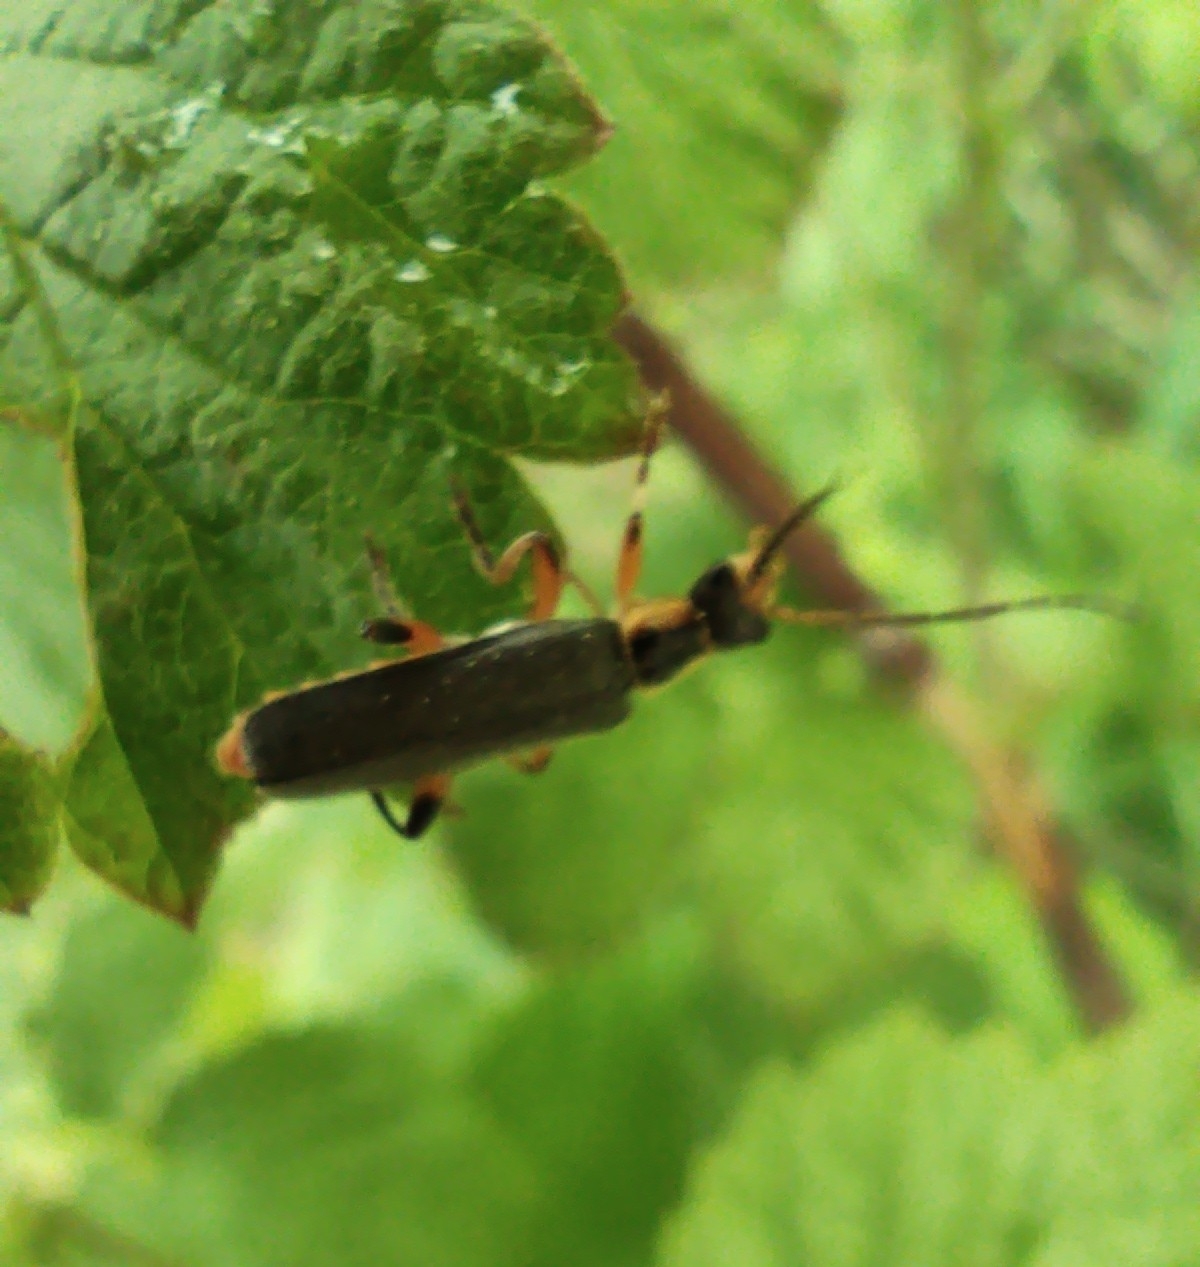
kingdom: Animalia
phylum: Arthropoda
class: Insecta
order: Coleoptera
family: Cantharidae
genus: Cantharis
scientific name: Cantharis nigricans
